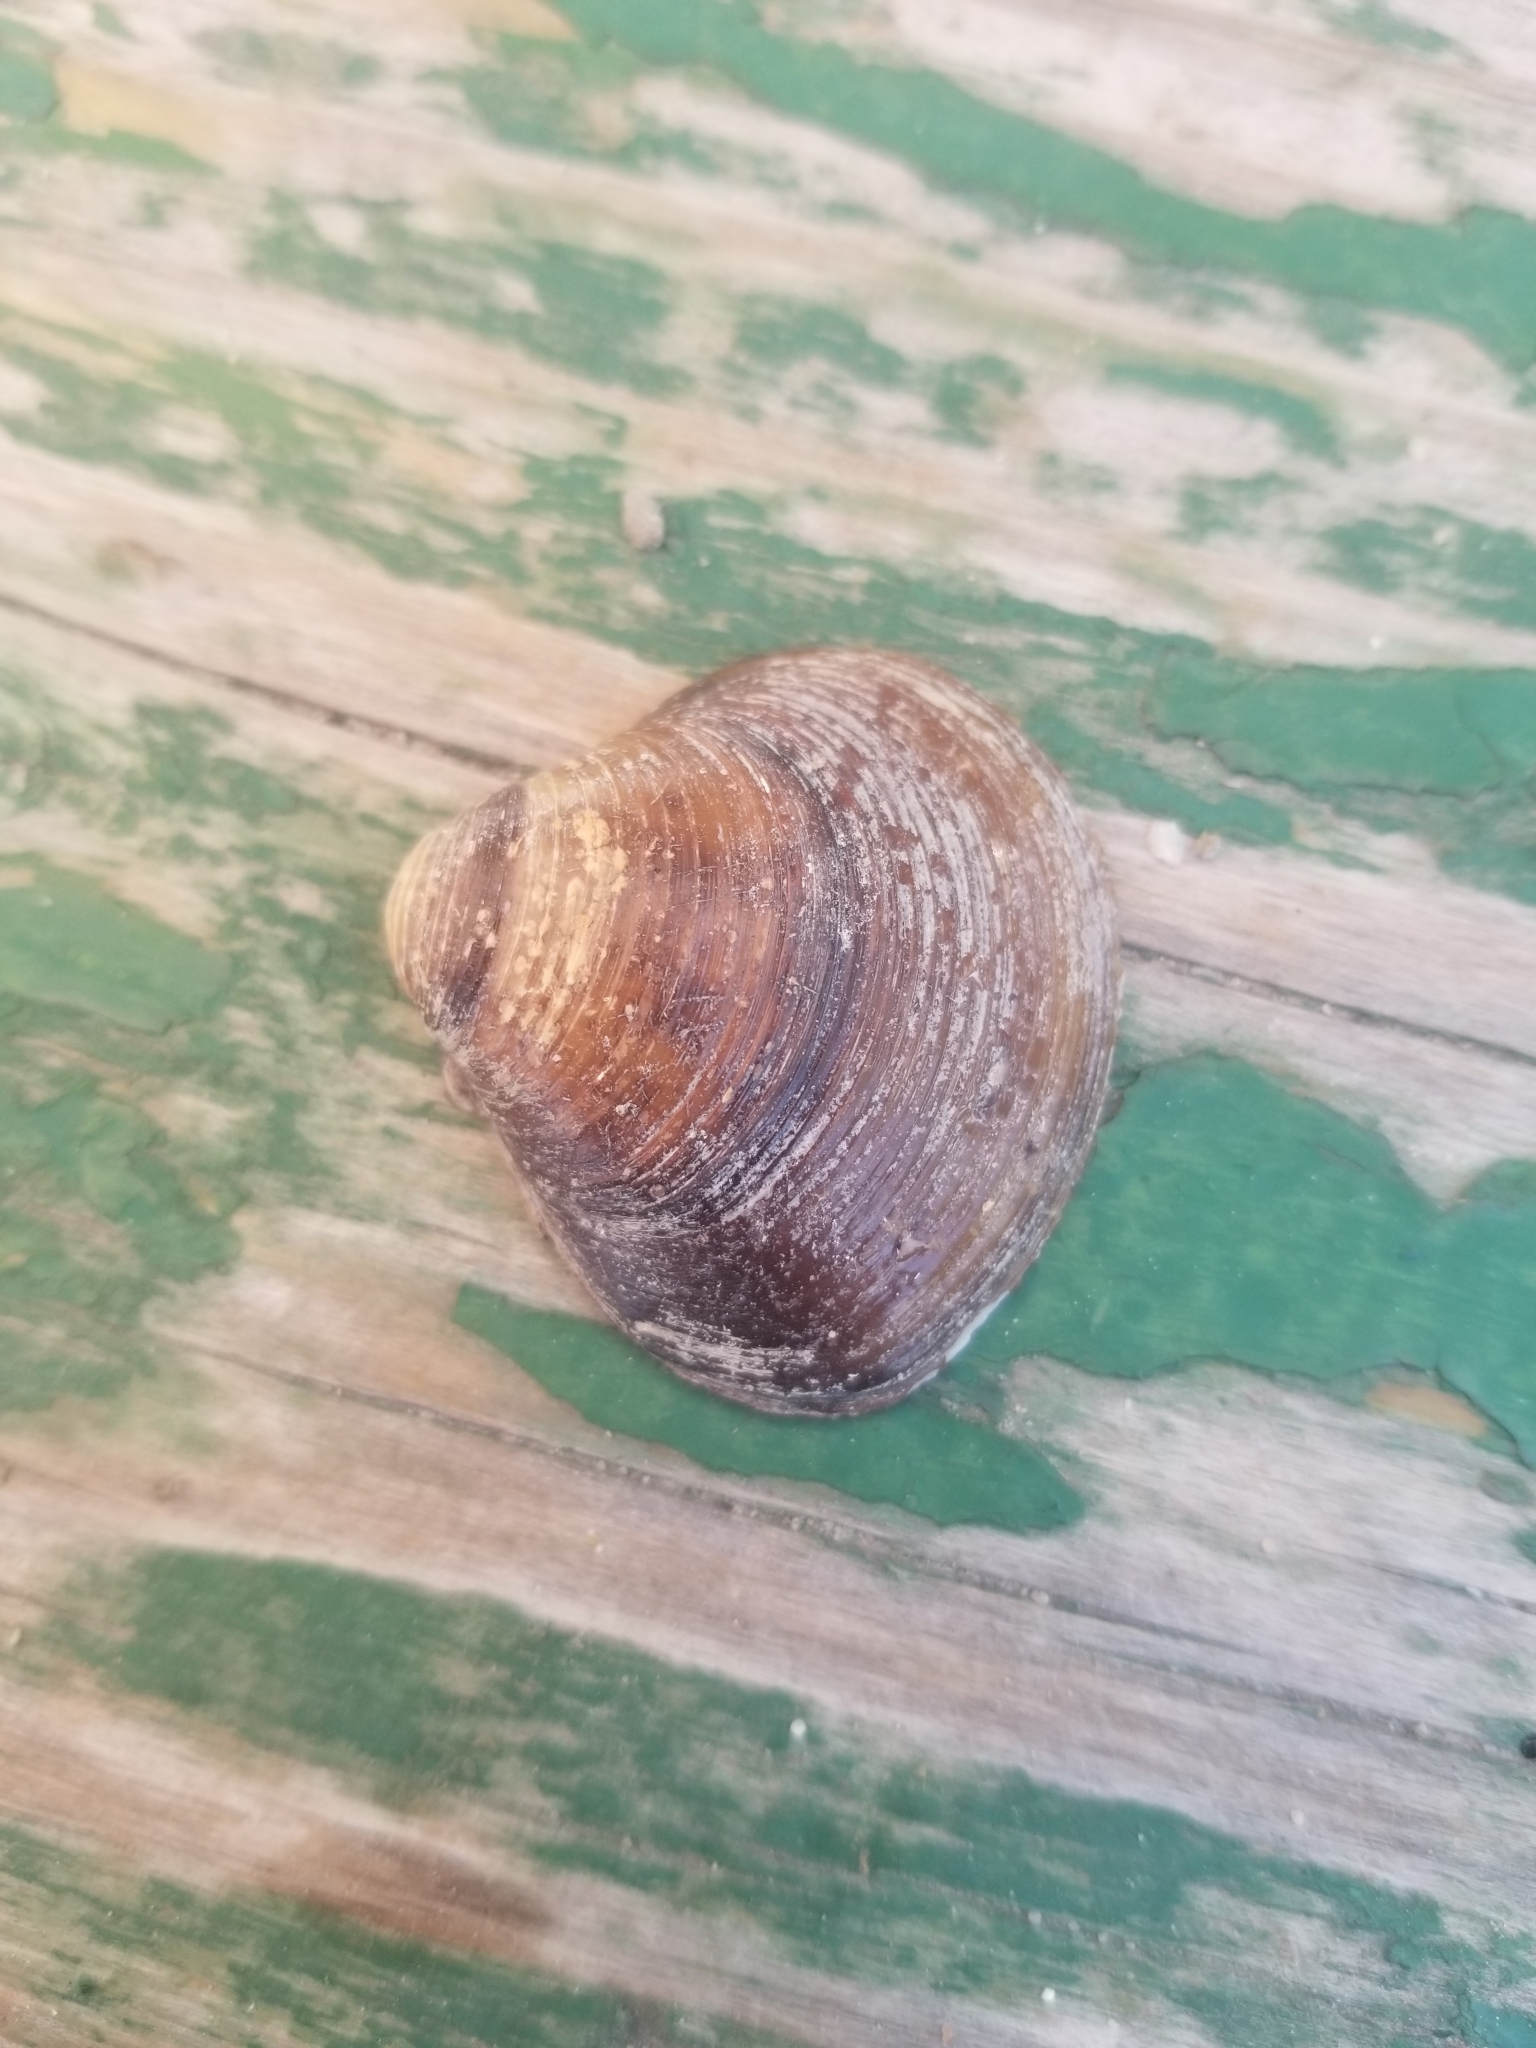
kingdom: Animalia
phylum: Mollusca
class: Bivalvia
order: Venerida
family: Cyrenidae
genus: Corbicula
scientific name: Corbicula fluminea
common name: Asian clam
